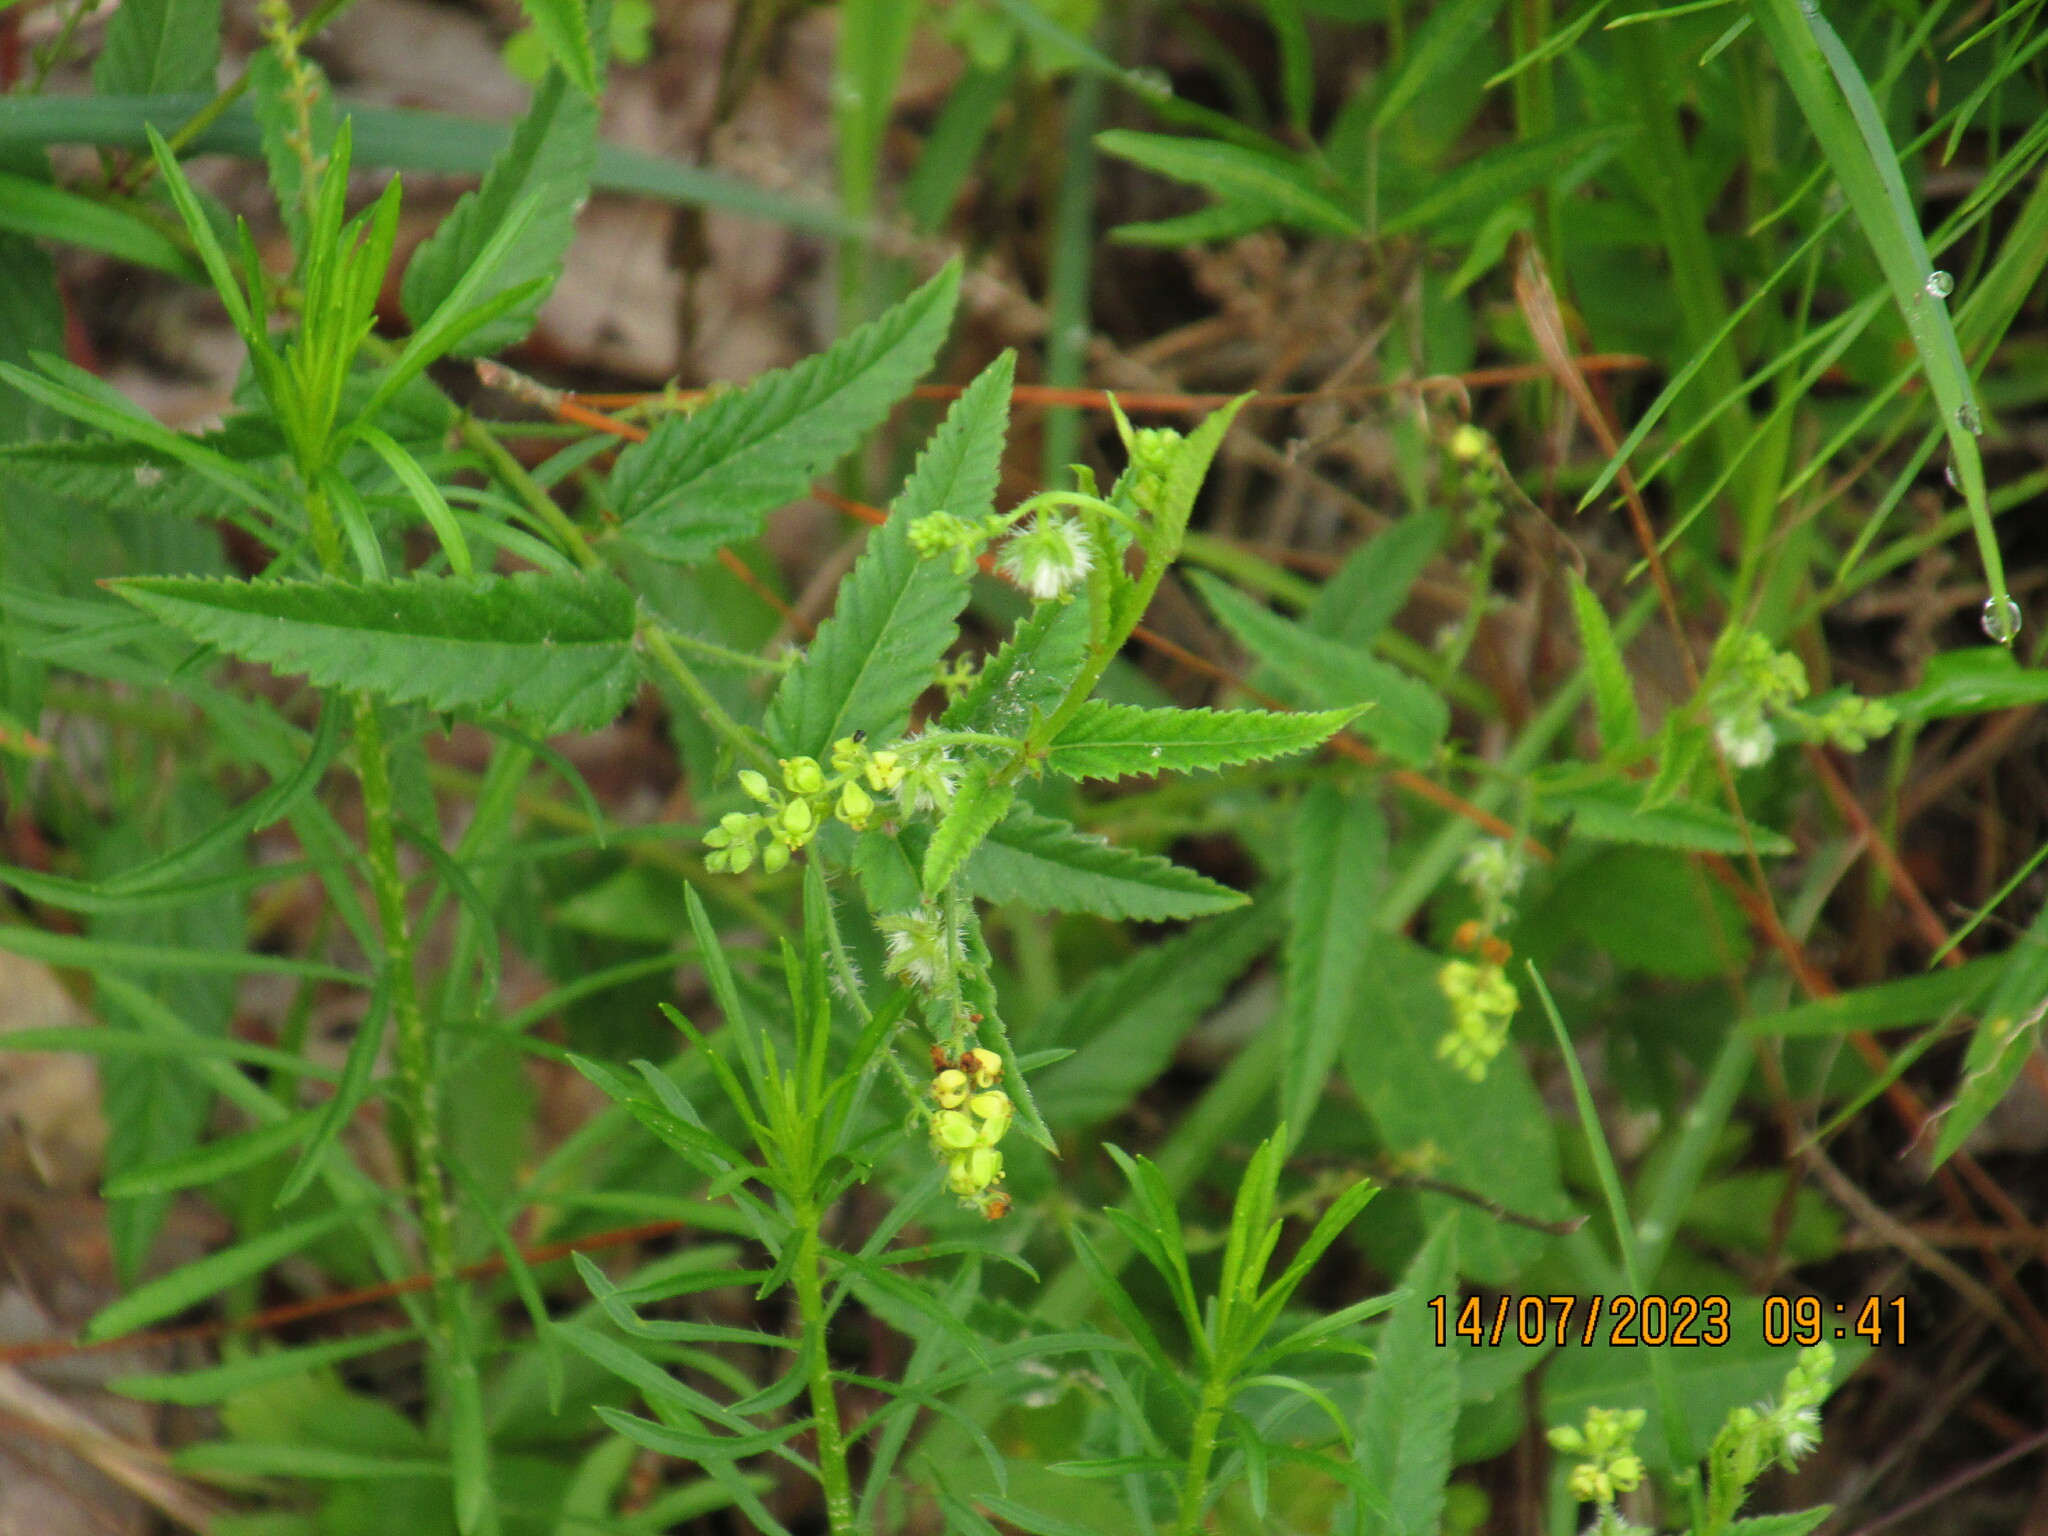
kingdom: Plantae
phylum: Tracheophyta
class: Magnoliopsida
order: Malpighiales
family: Euphorbiaceae
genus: Tragia
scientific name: Tragia betonicifolia
